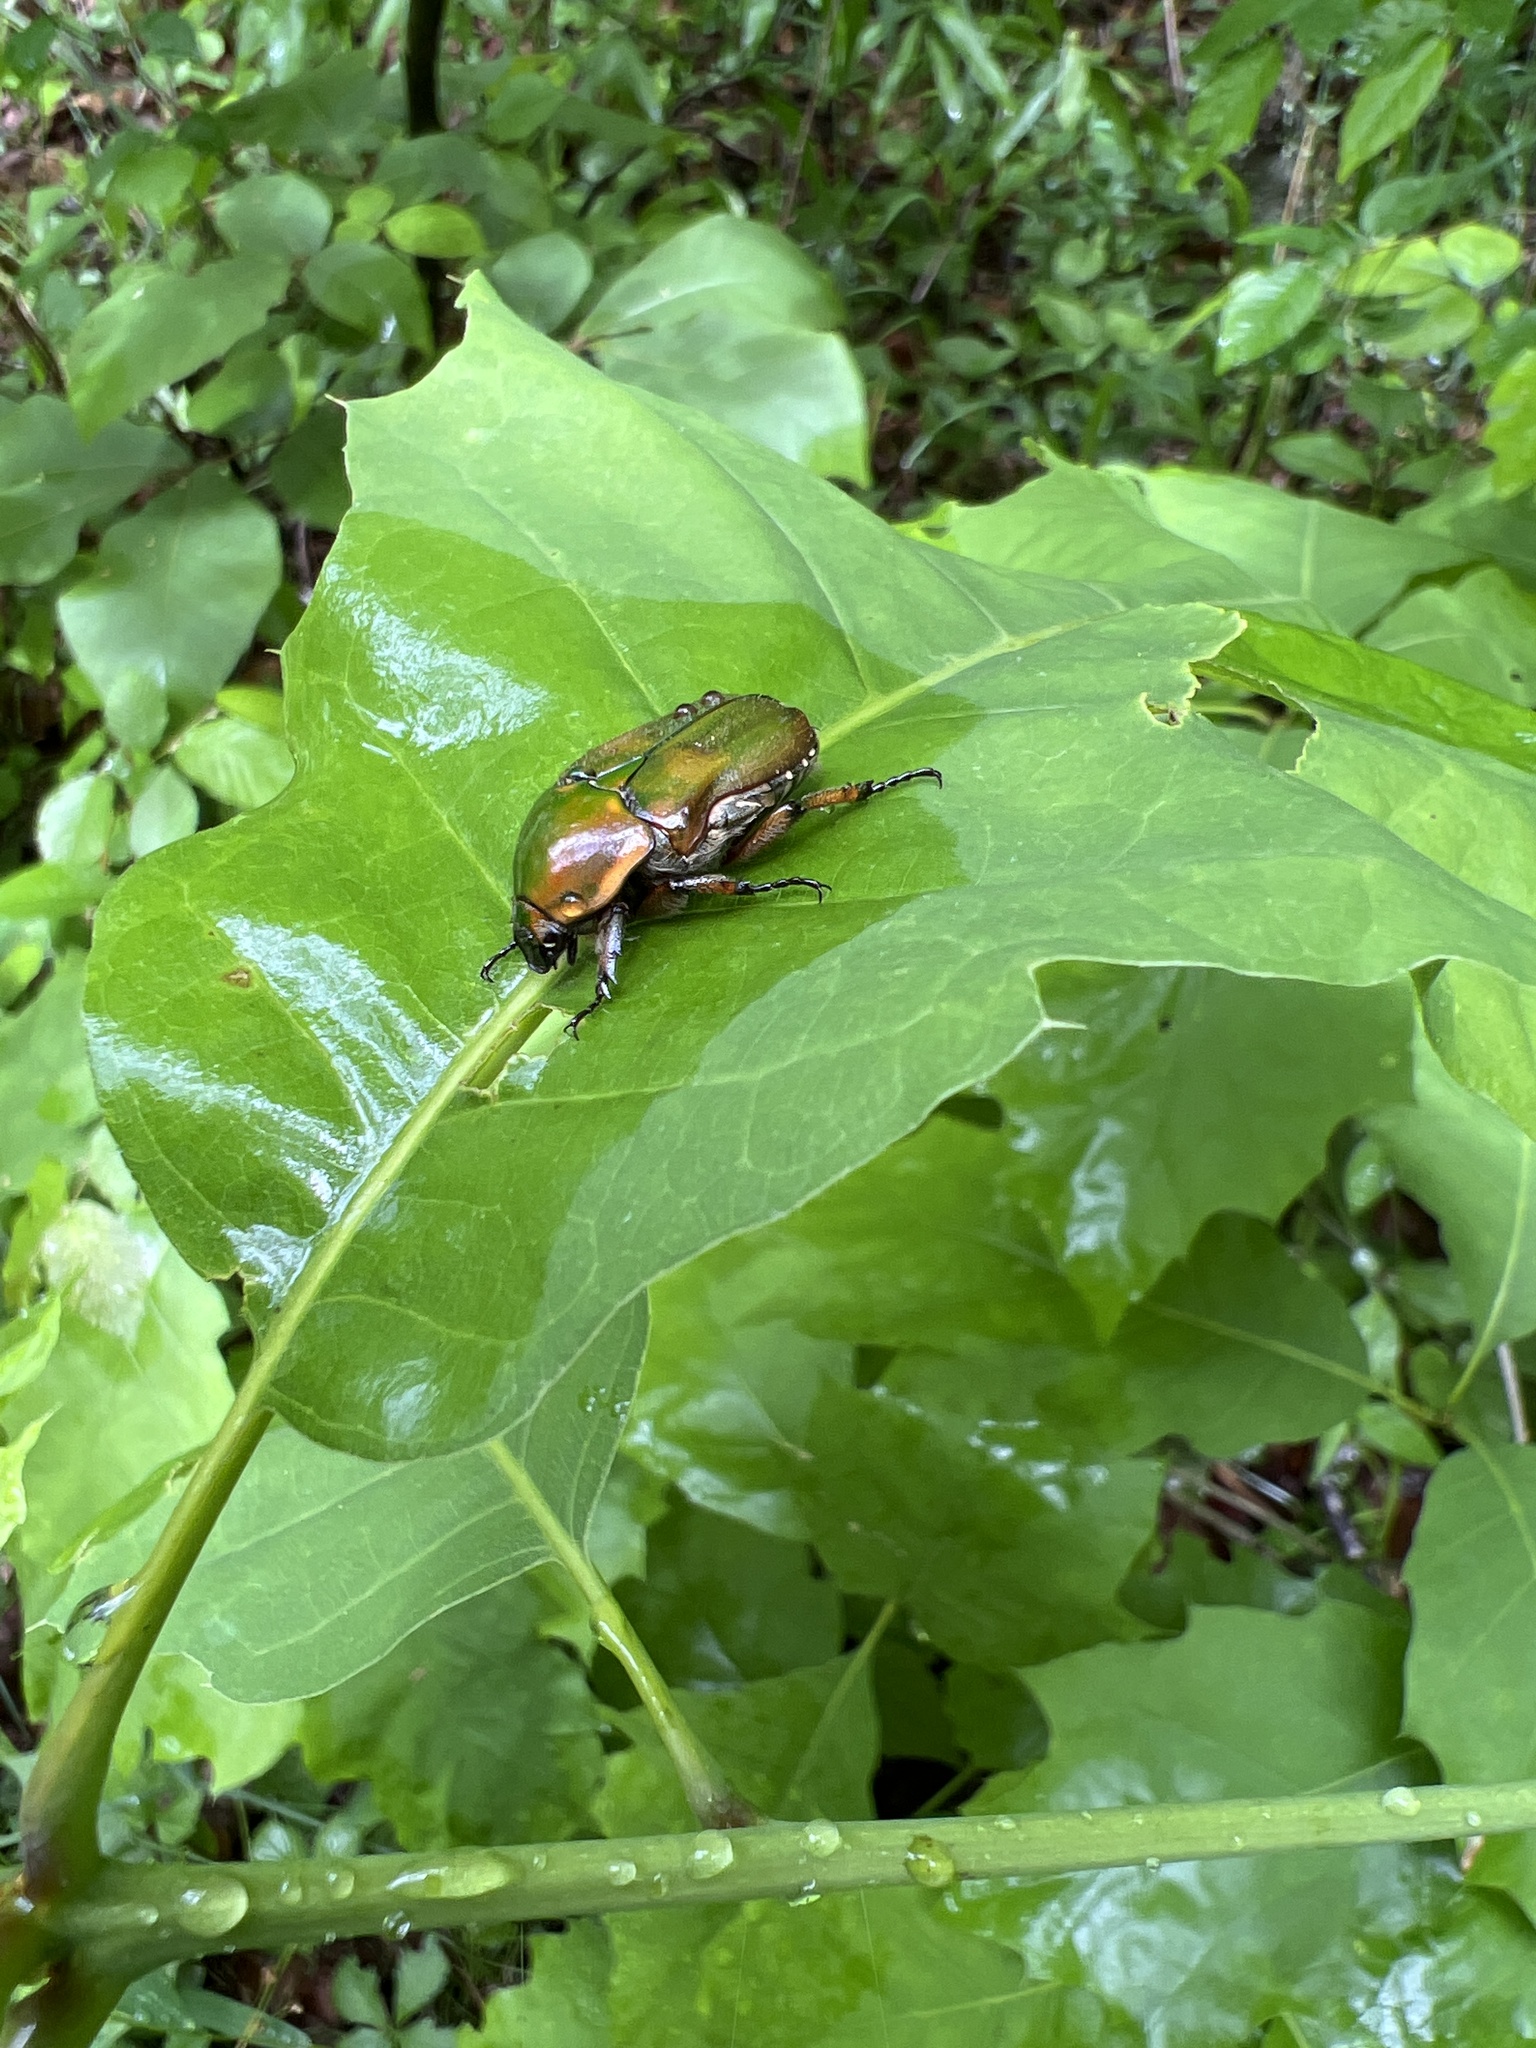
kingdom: Animalia
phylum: Arthropoda
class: Insecta
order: Coleoptera
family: Scarabaeidae
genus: Euphoria
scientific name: Euphoria fulgida
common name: Emerald euphoria
